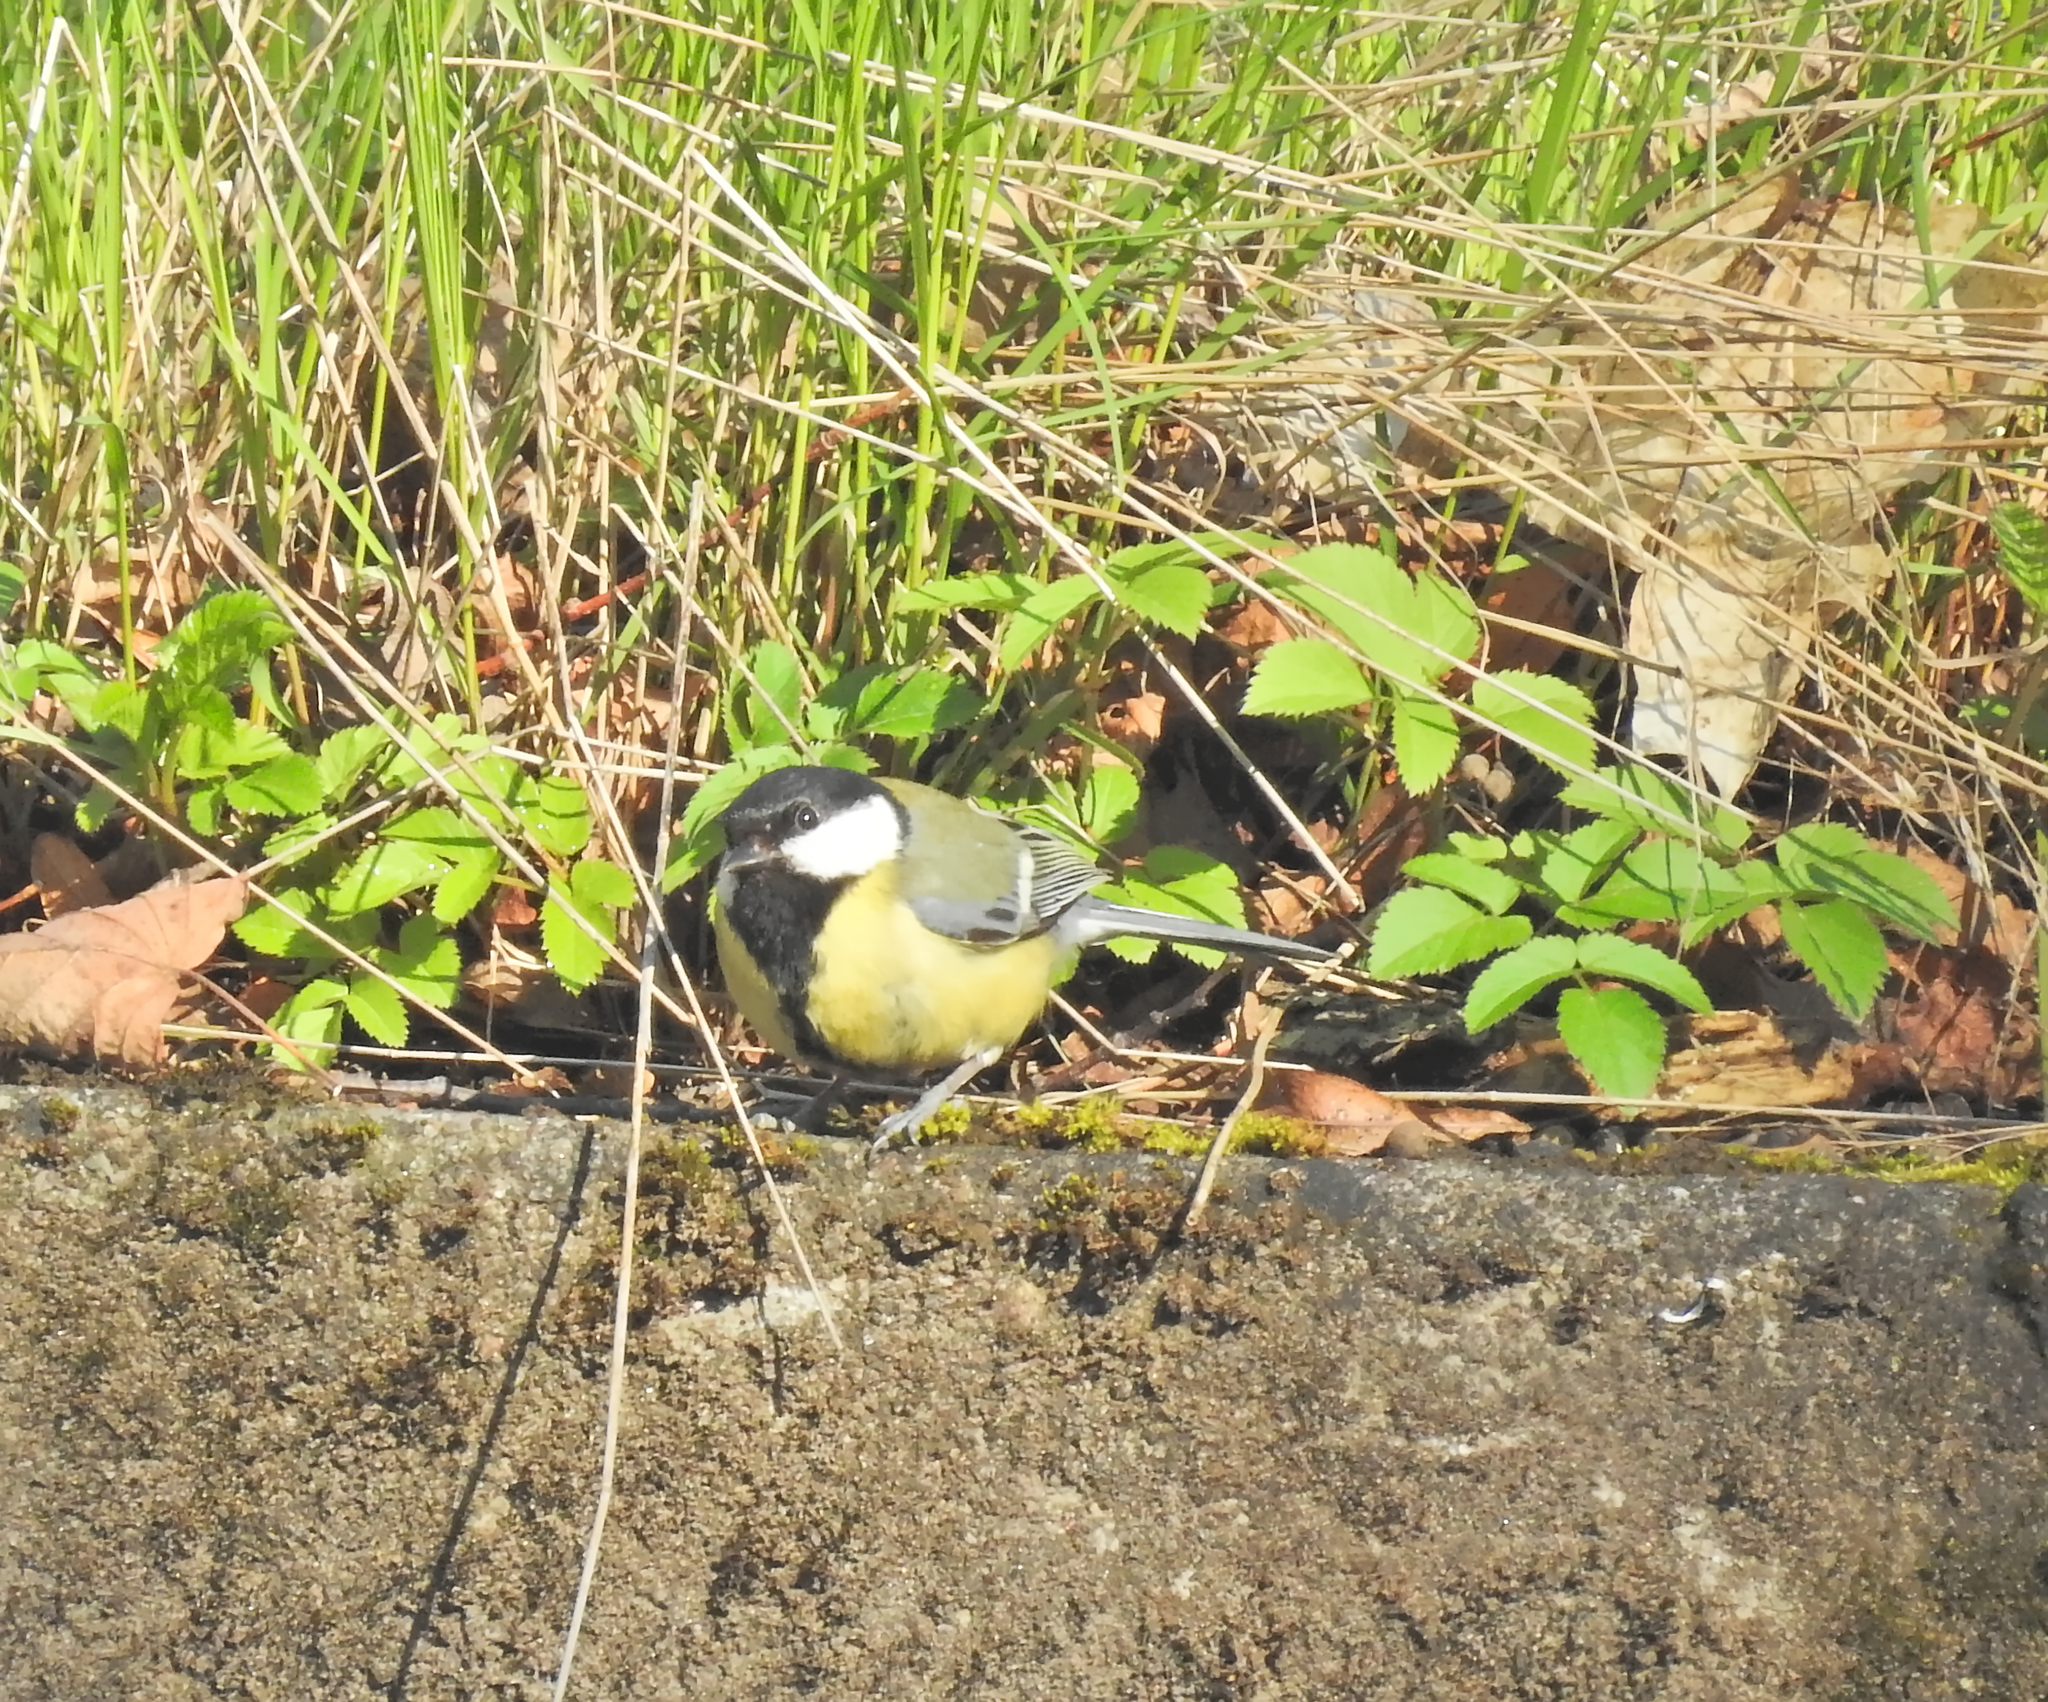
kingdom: Animalia
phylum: Chordata
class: Aves
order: Passeriformes
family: Paridae
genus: Parus
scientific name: Parus major
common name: Great tit
